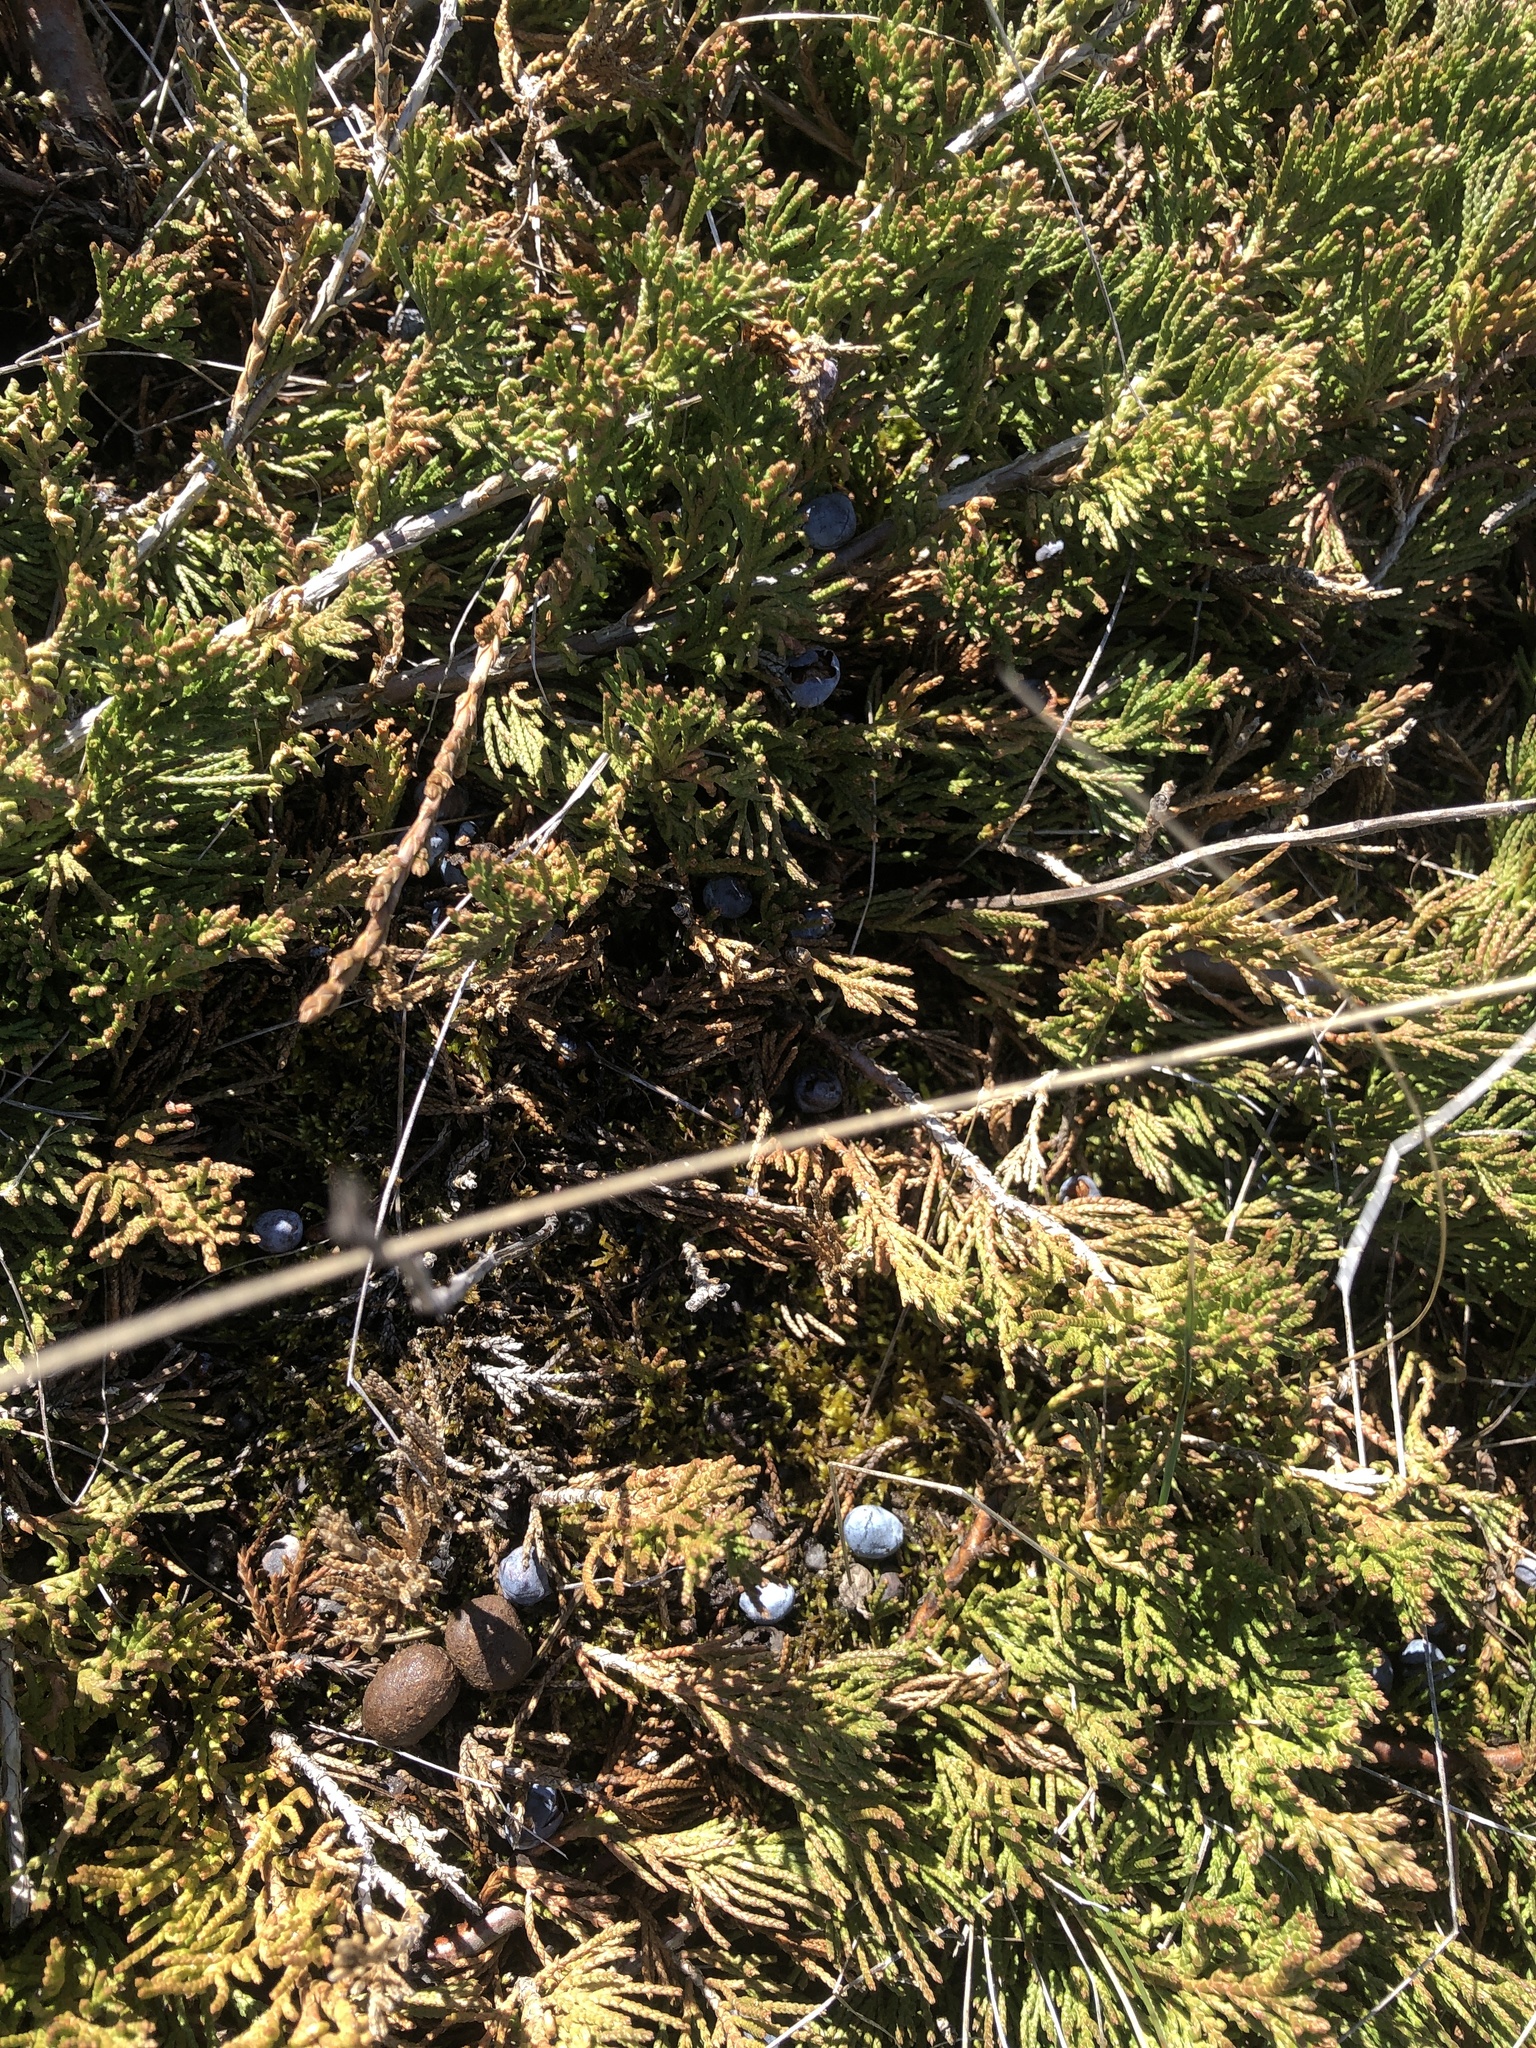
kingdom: Plantae
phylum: Tracheophyta
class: Pinopsida
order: Pinales
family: Cupressaceae
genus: Juniperus
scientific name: Juniperus horizontalis
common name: Creeping juniper
